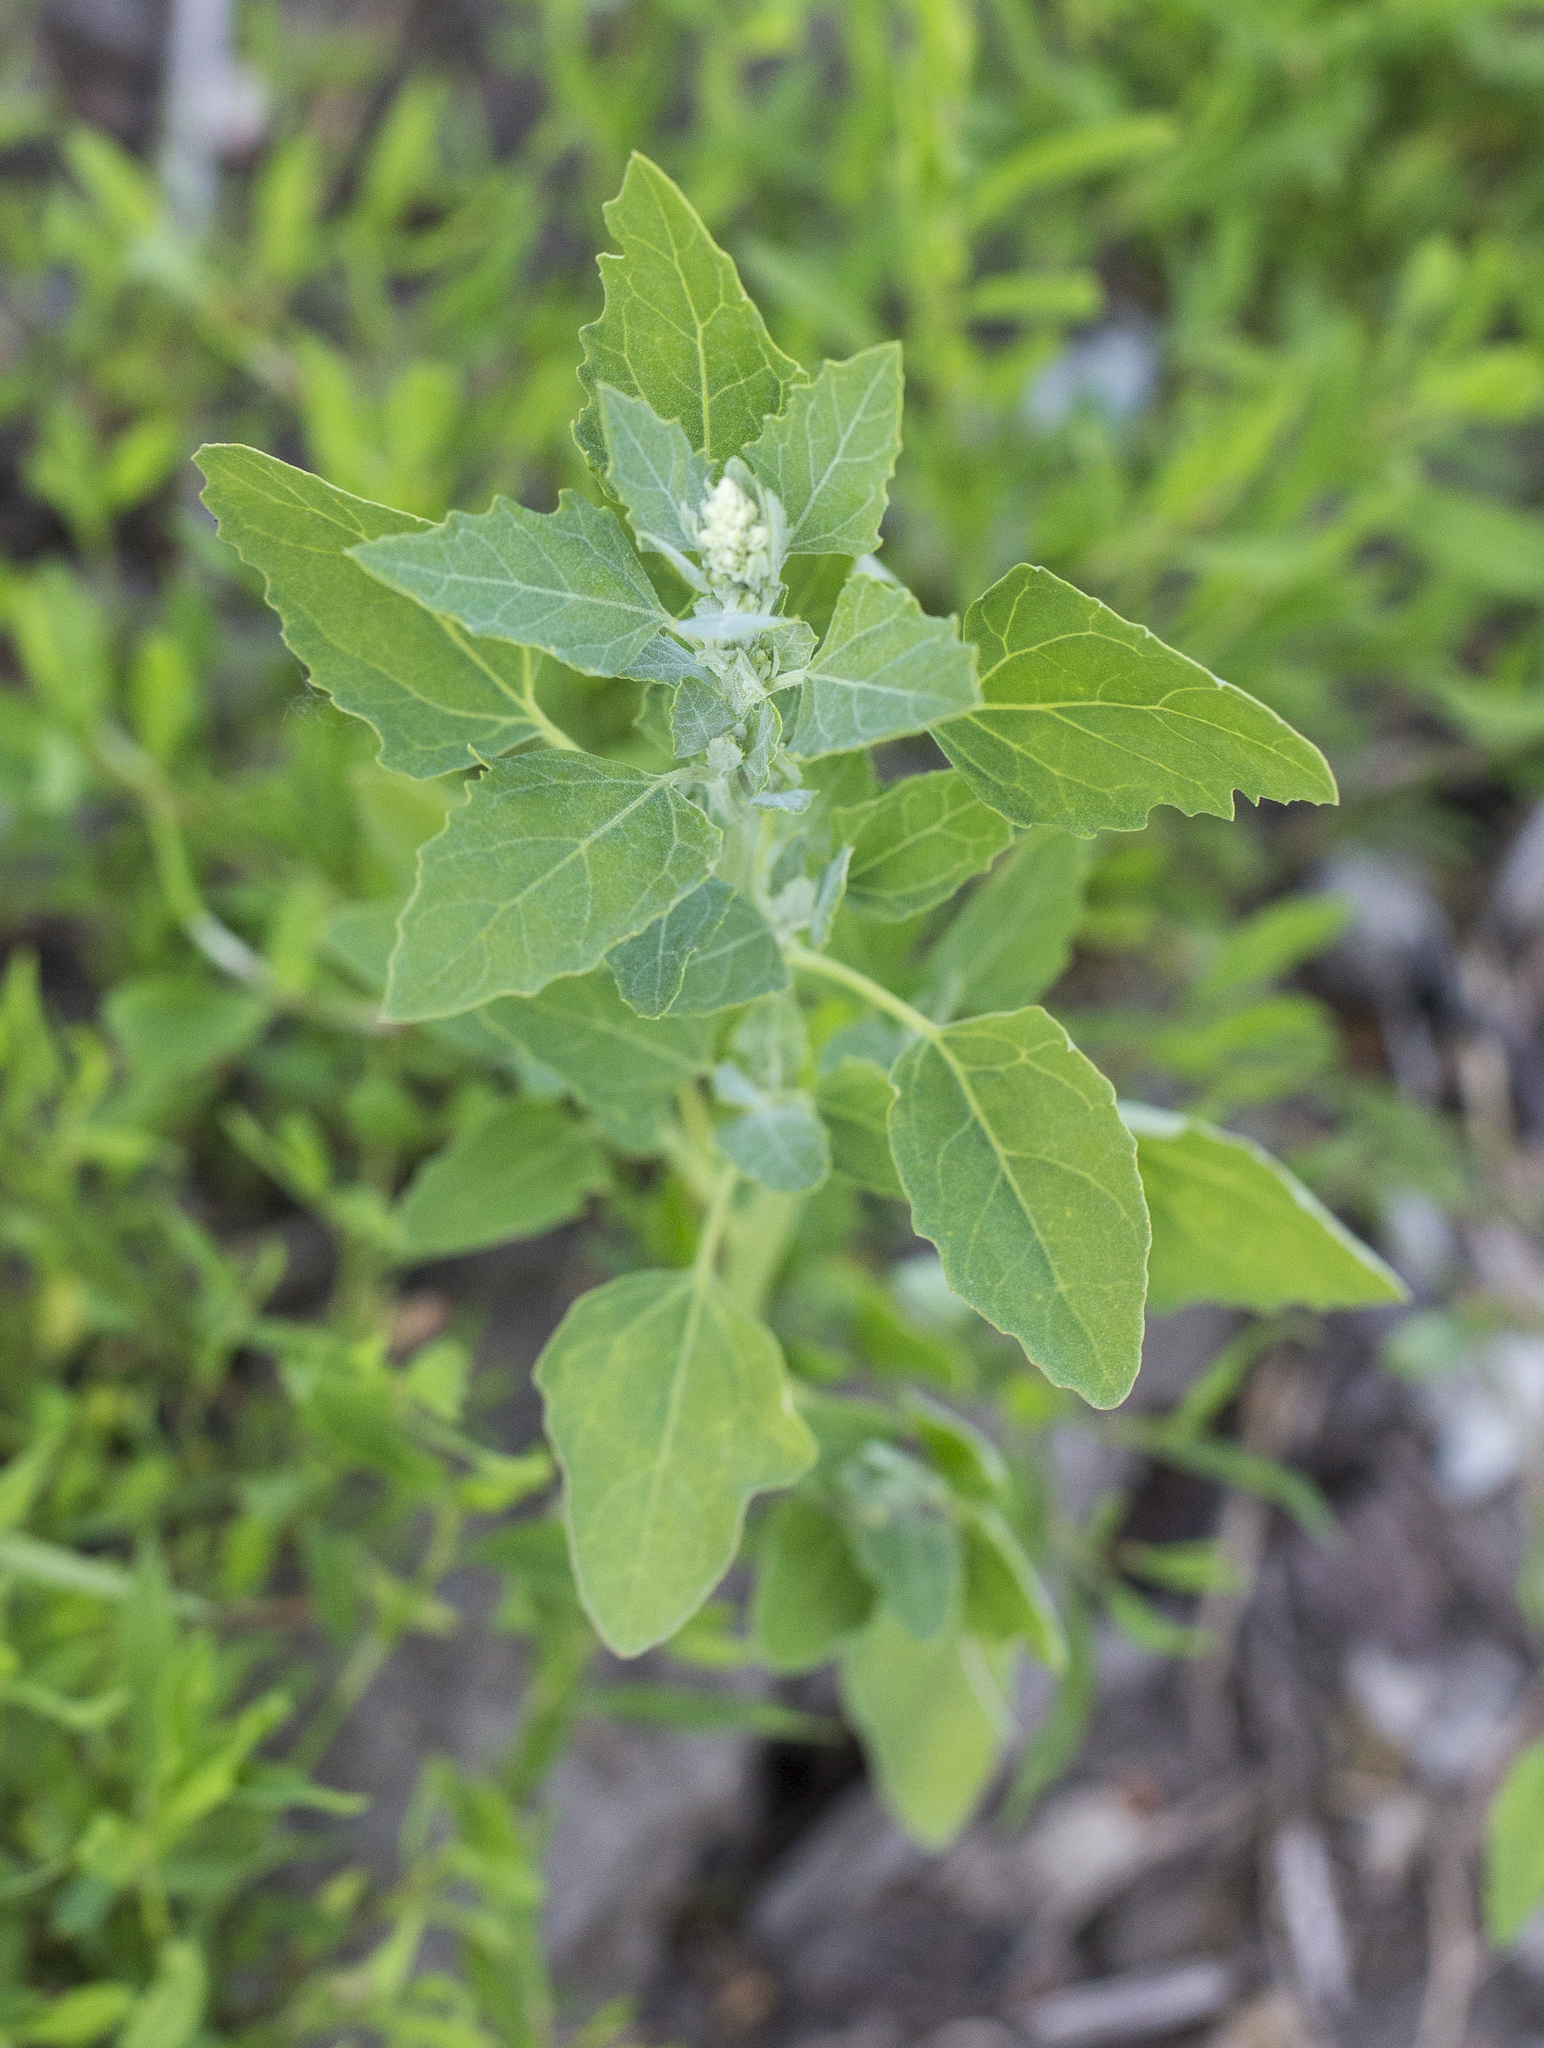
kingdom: Plantae
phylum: Tracheophyta
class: Magnoliopsida
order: Caryophyllales
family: Amaranthaceae
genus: Chenopodium
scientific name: Chenopodium album
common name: Fat-hen
